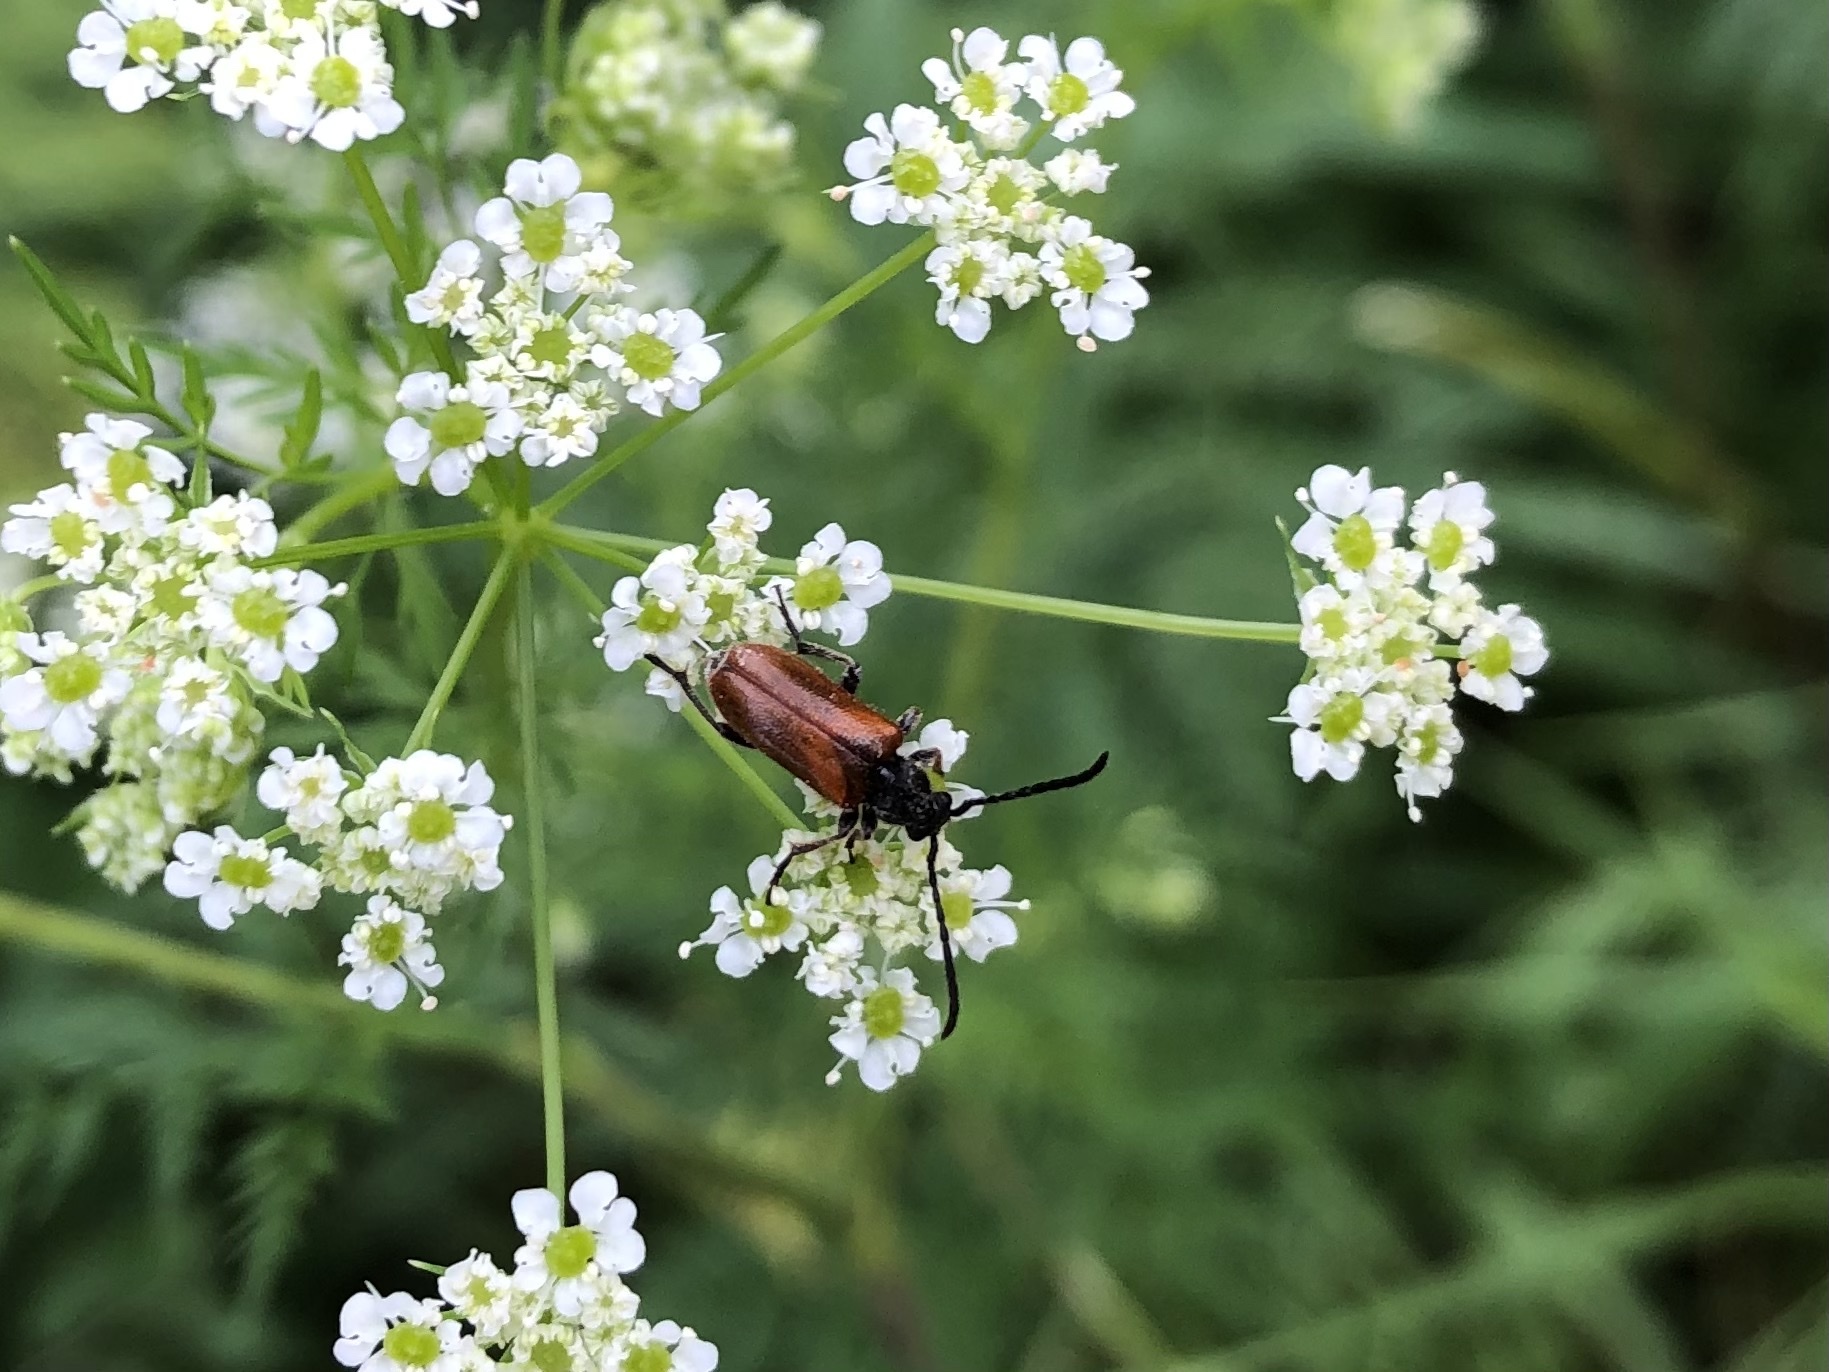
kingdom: Animalia
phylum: Arthropoda
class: Insecta
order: Coleoptera
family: Cerambycidae
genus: Pseudovadonia
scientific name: Pseudovadonia livida
